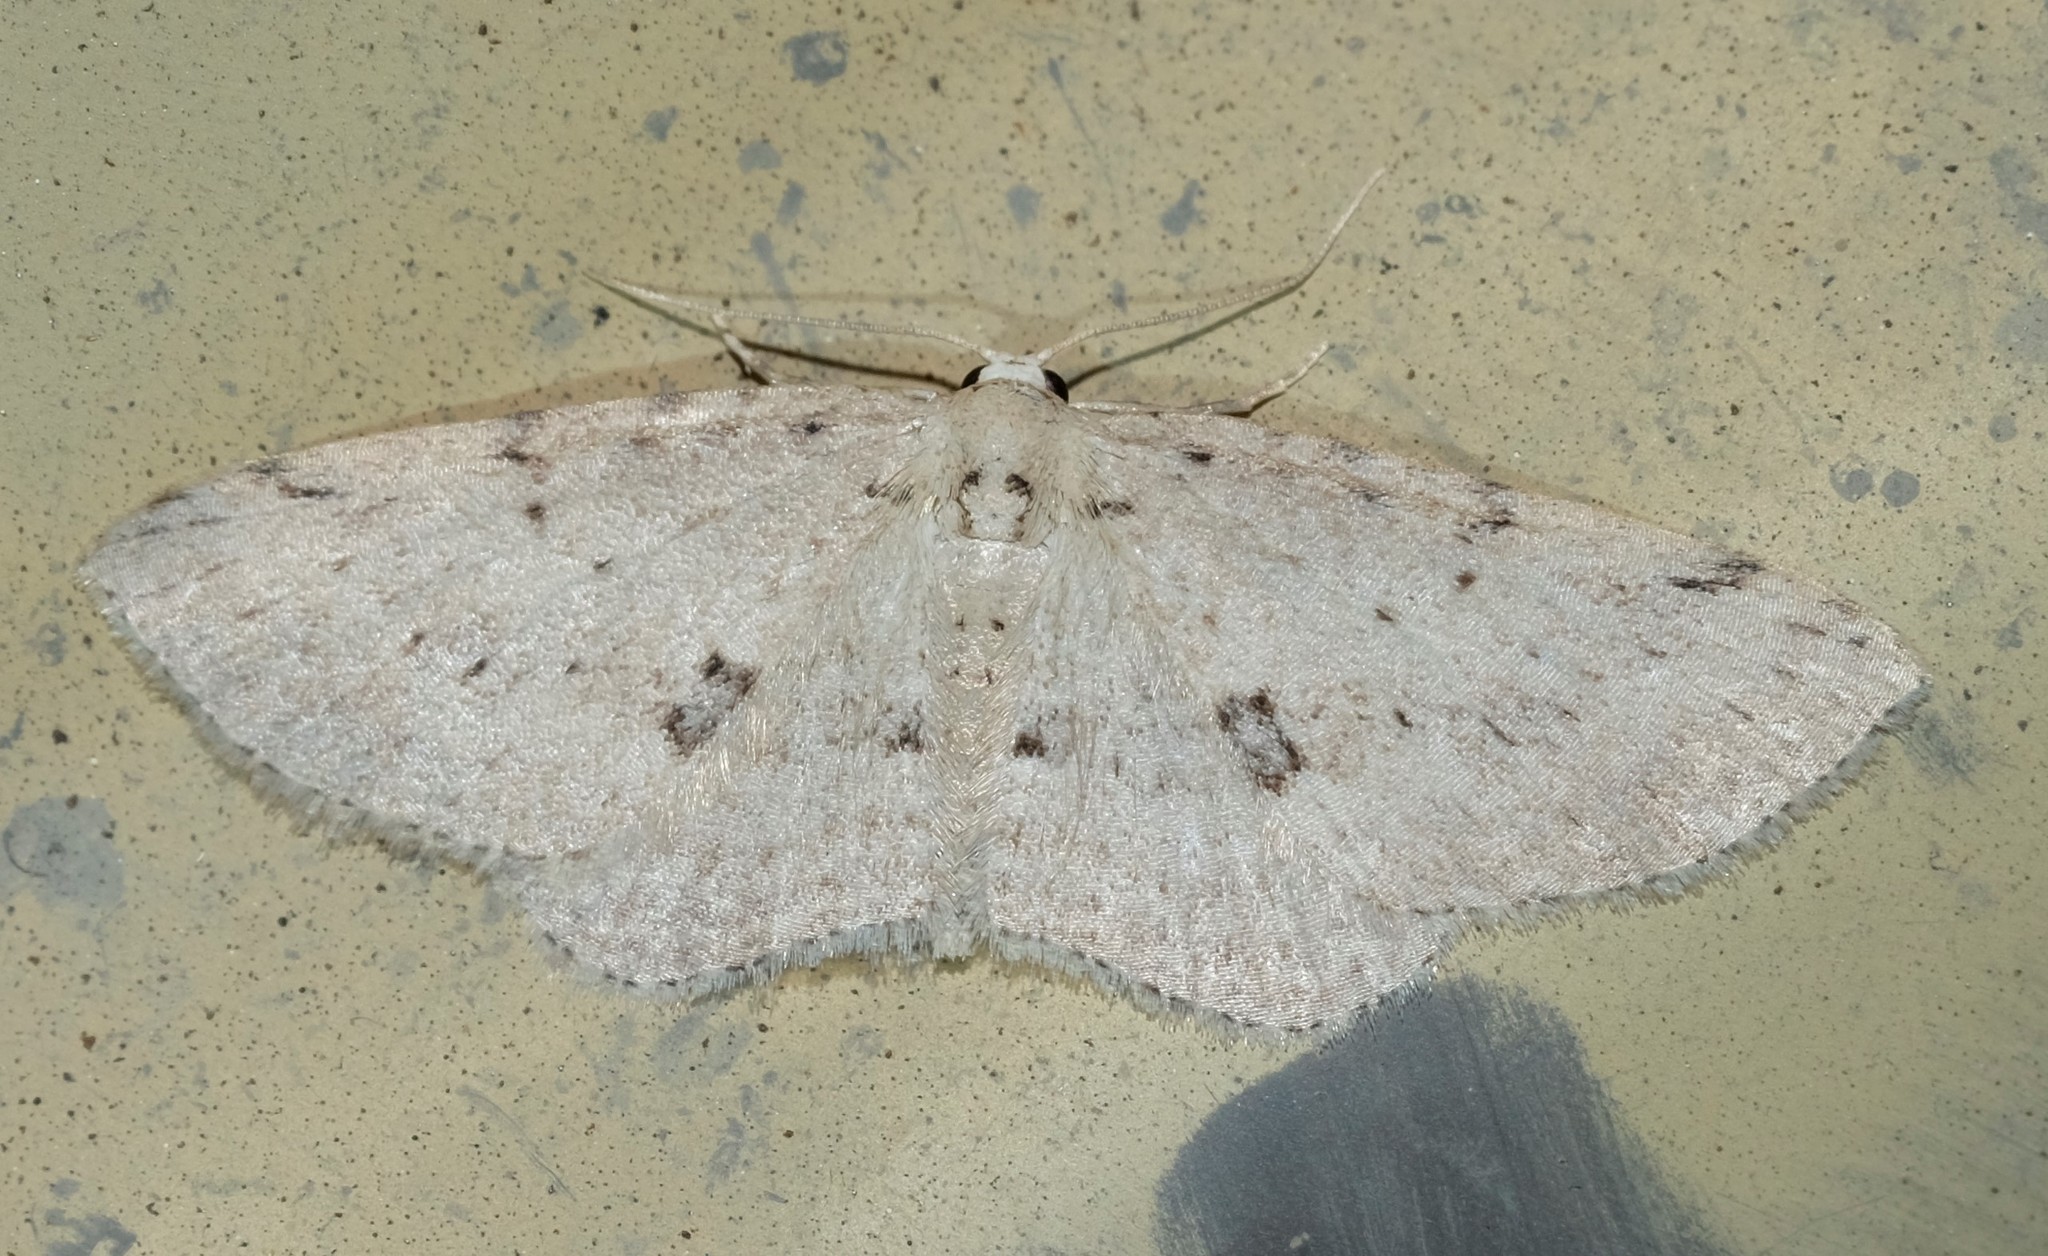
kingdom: Animalia
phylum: Arthropoda
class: Insecta
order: Lepidoptera
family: Geometridae
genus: Poecilasthena
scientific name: Poecilasthena scoliota
